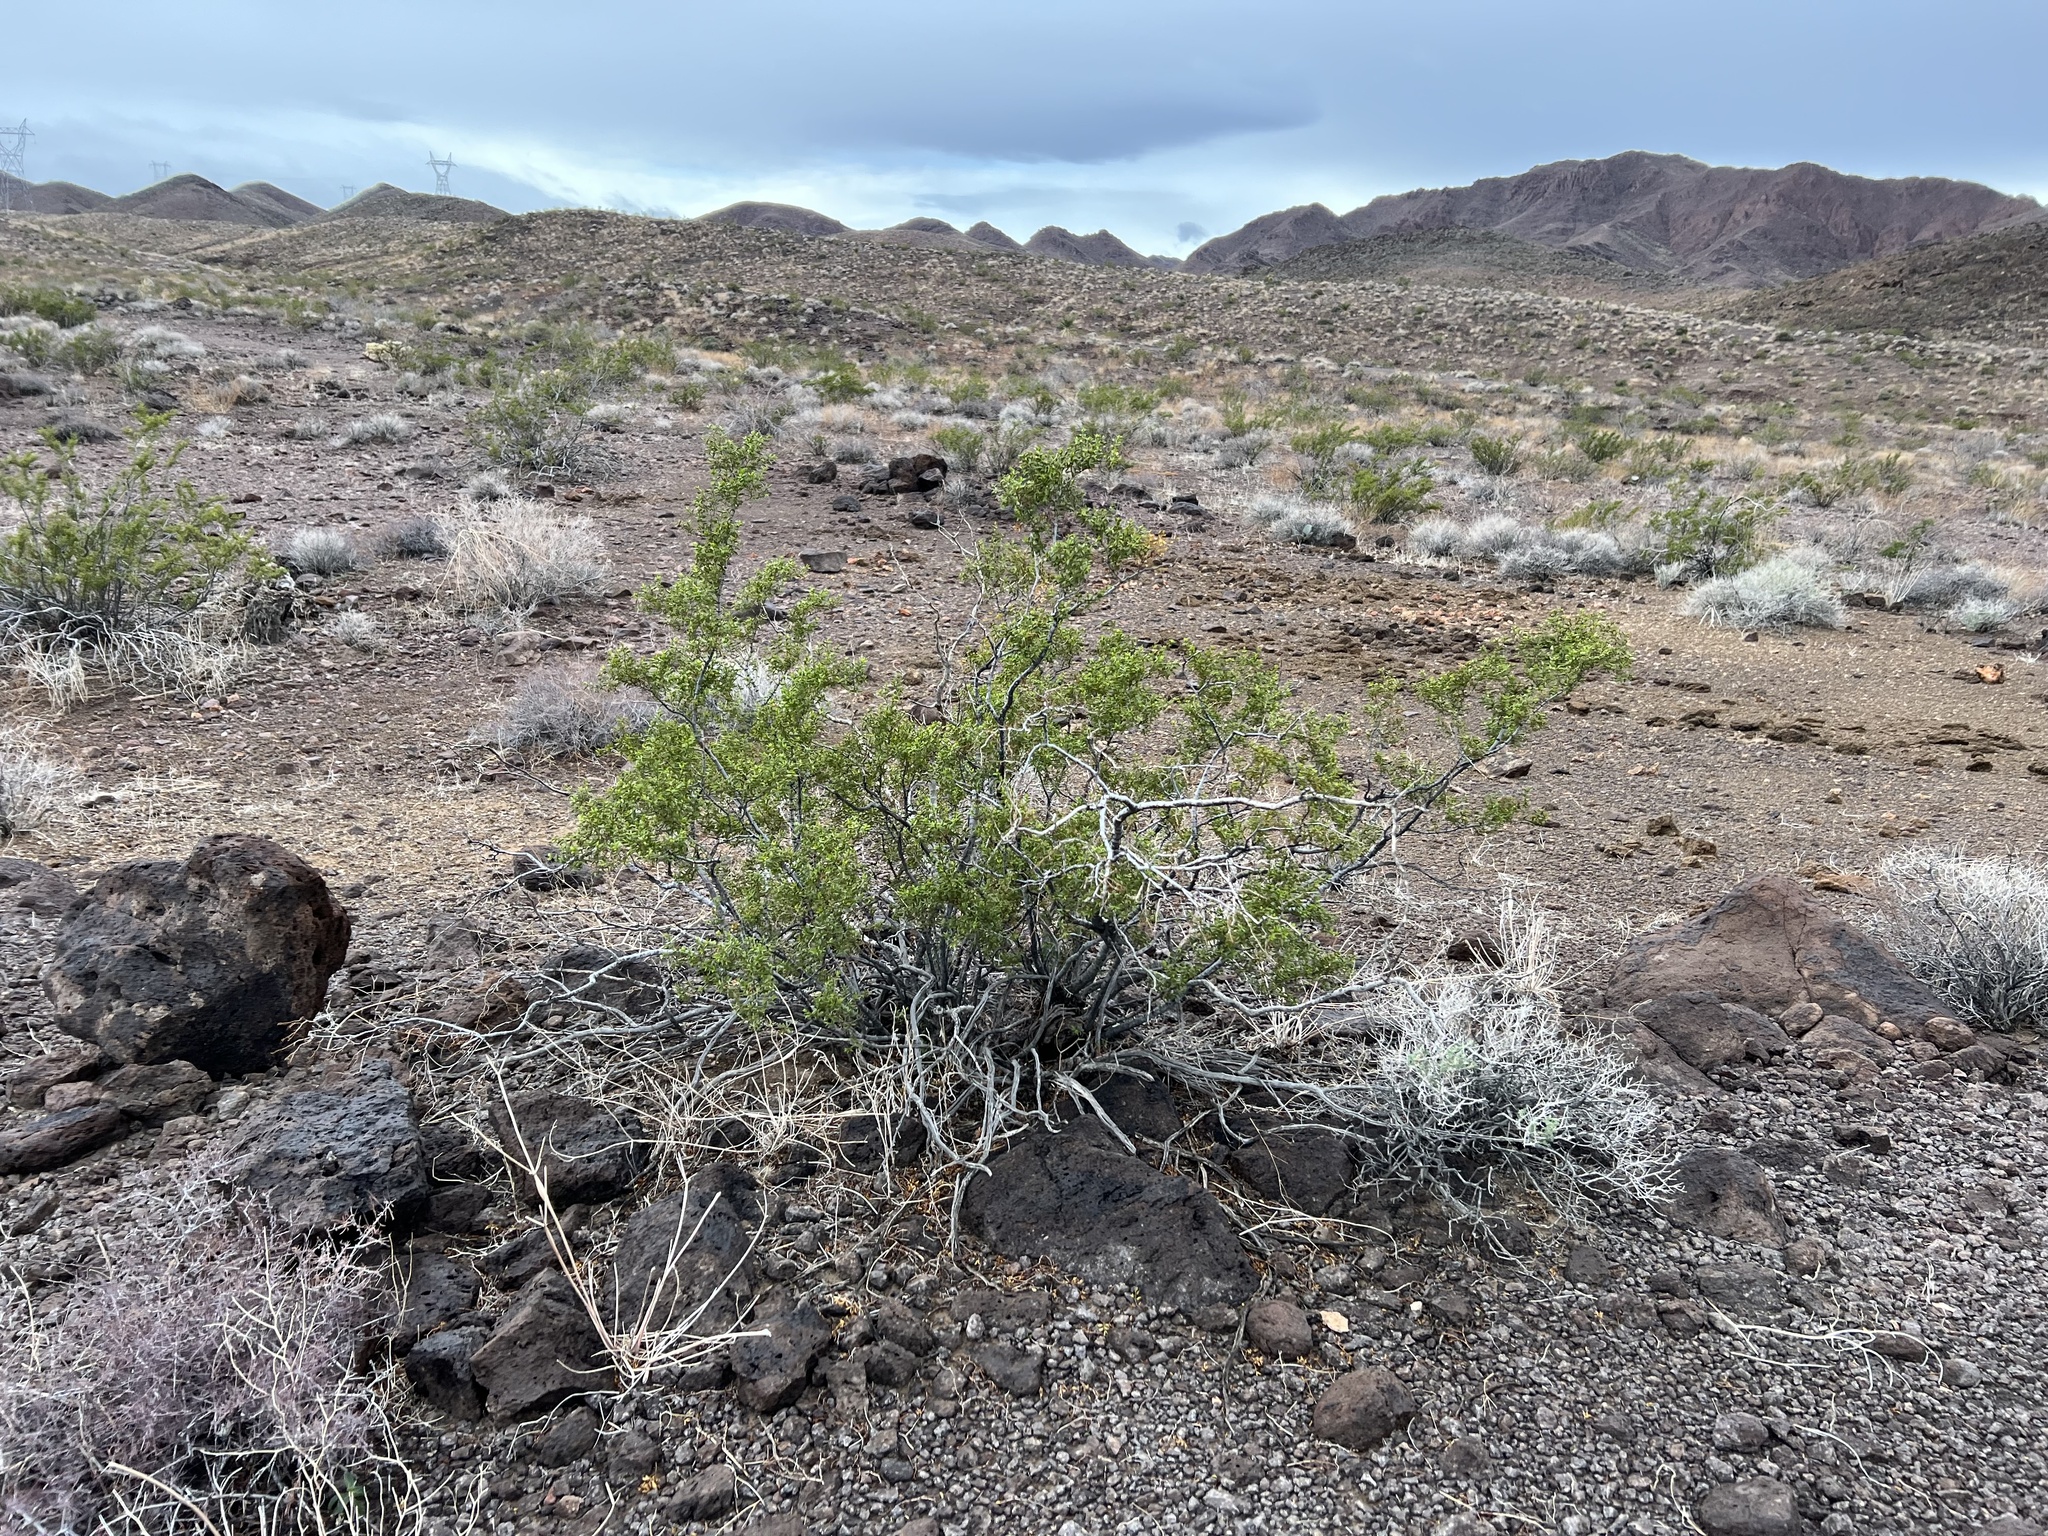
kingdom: Plantae
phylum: Tracheophyta
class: Magnoliopsida
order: Zygophyllales
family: Zygophyllaceae
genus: Larrea
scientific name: Larrea tridentata
